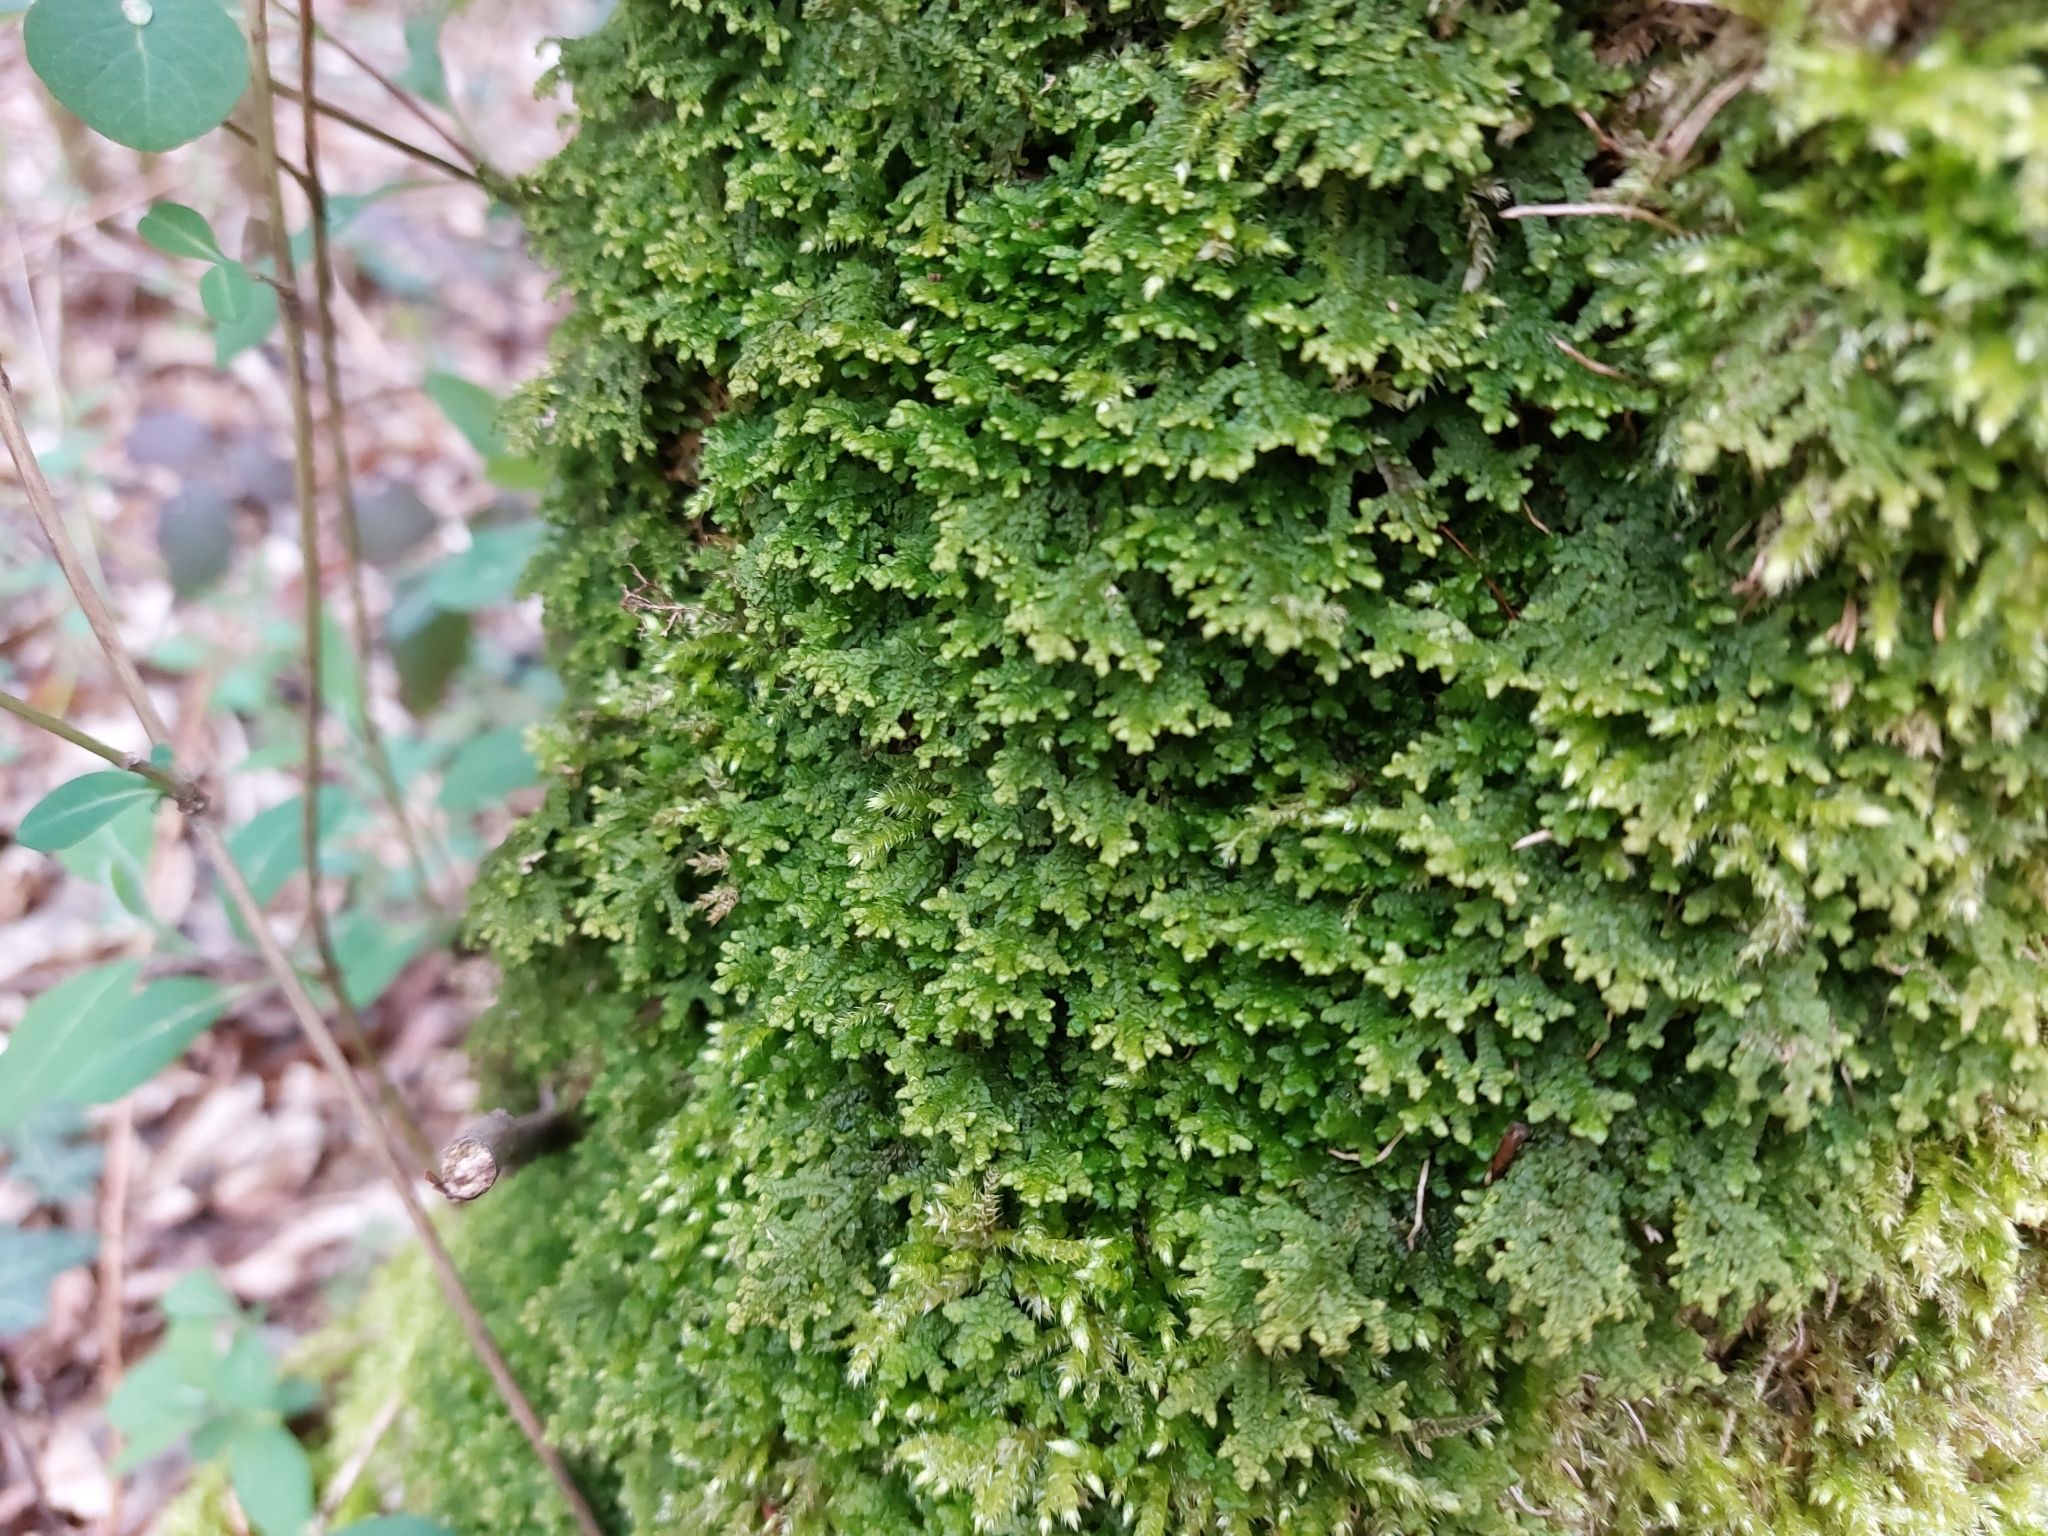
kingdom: Plantae
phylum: Marchantiophyta
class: Jungermanniopsida
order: Porellales
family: Porellaceae
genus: Porella
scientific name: Porella platyphylla
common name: Wall scalewort
